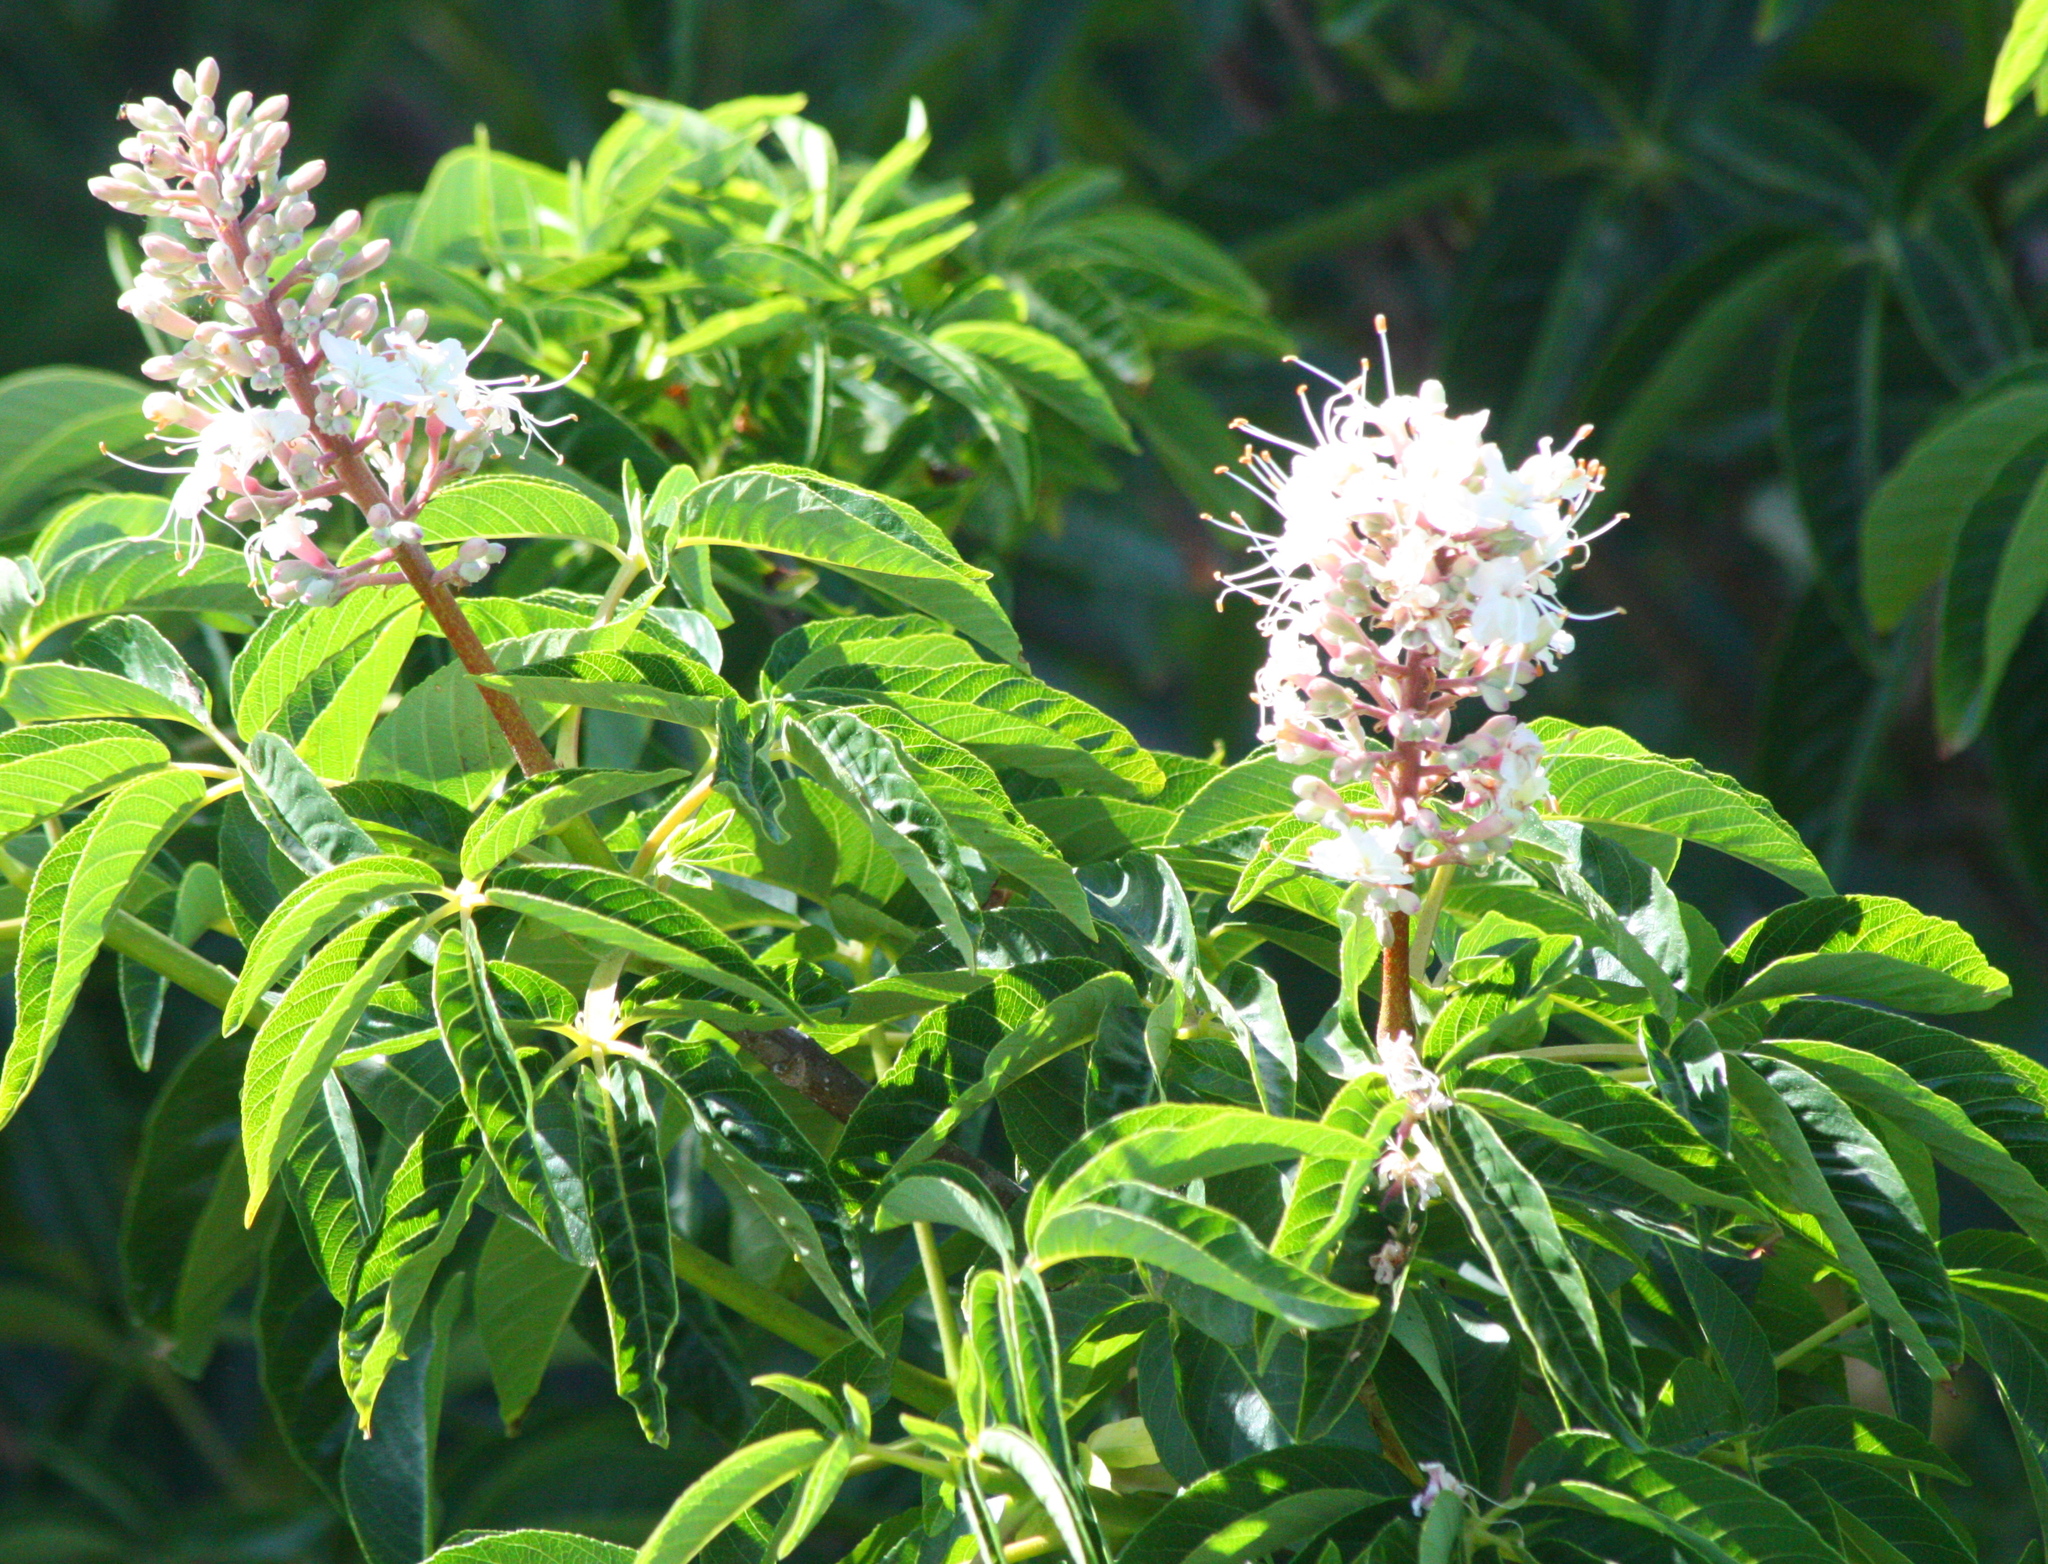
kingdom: Plantae
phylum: Tracheophyta
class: Magnoliopsida
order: Sapindales
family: Sapindaceae
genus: Aesculus
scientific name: Aesculus californica
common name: California buckeye
